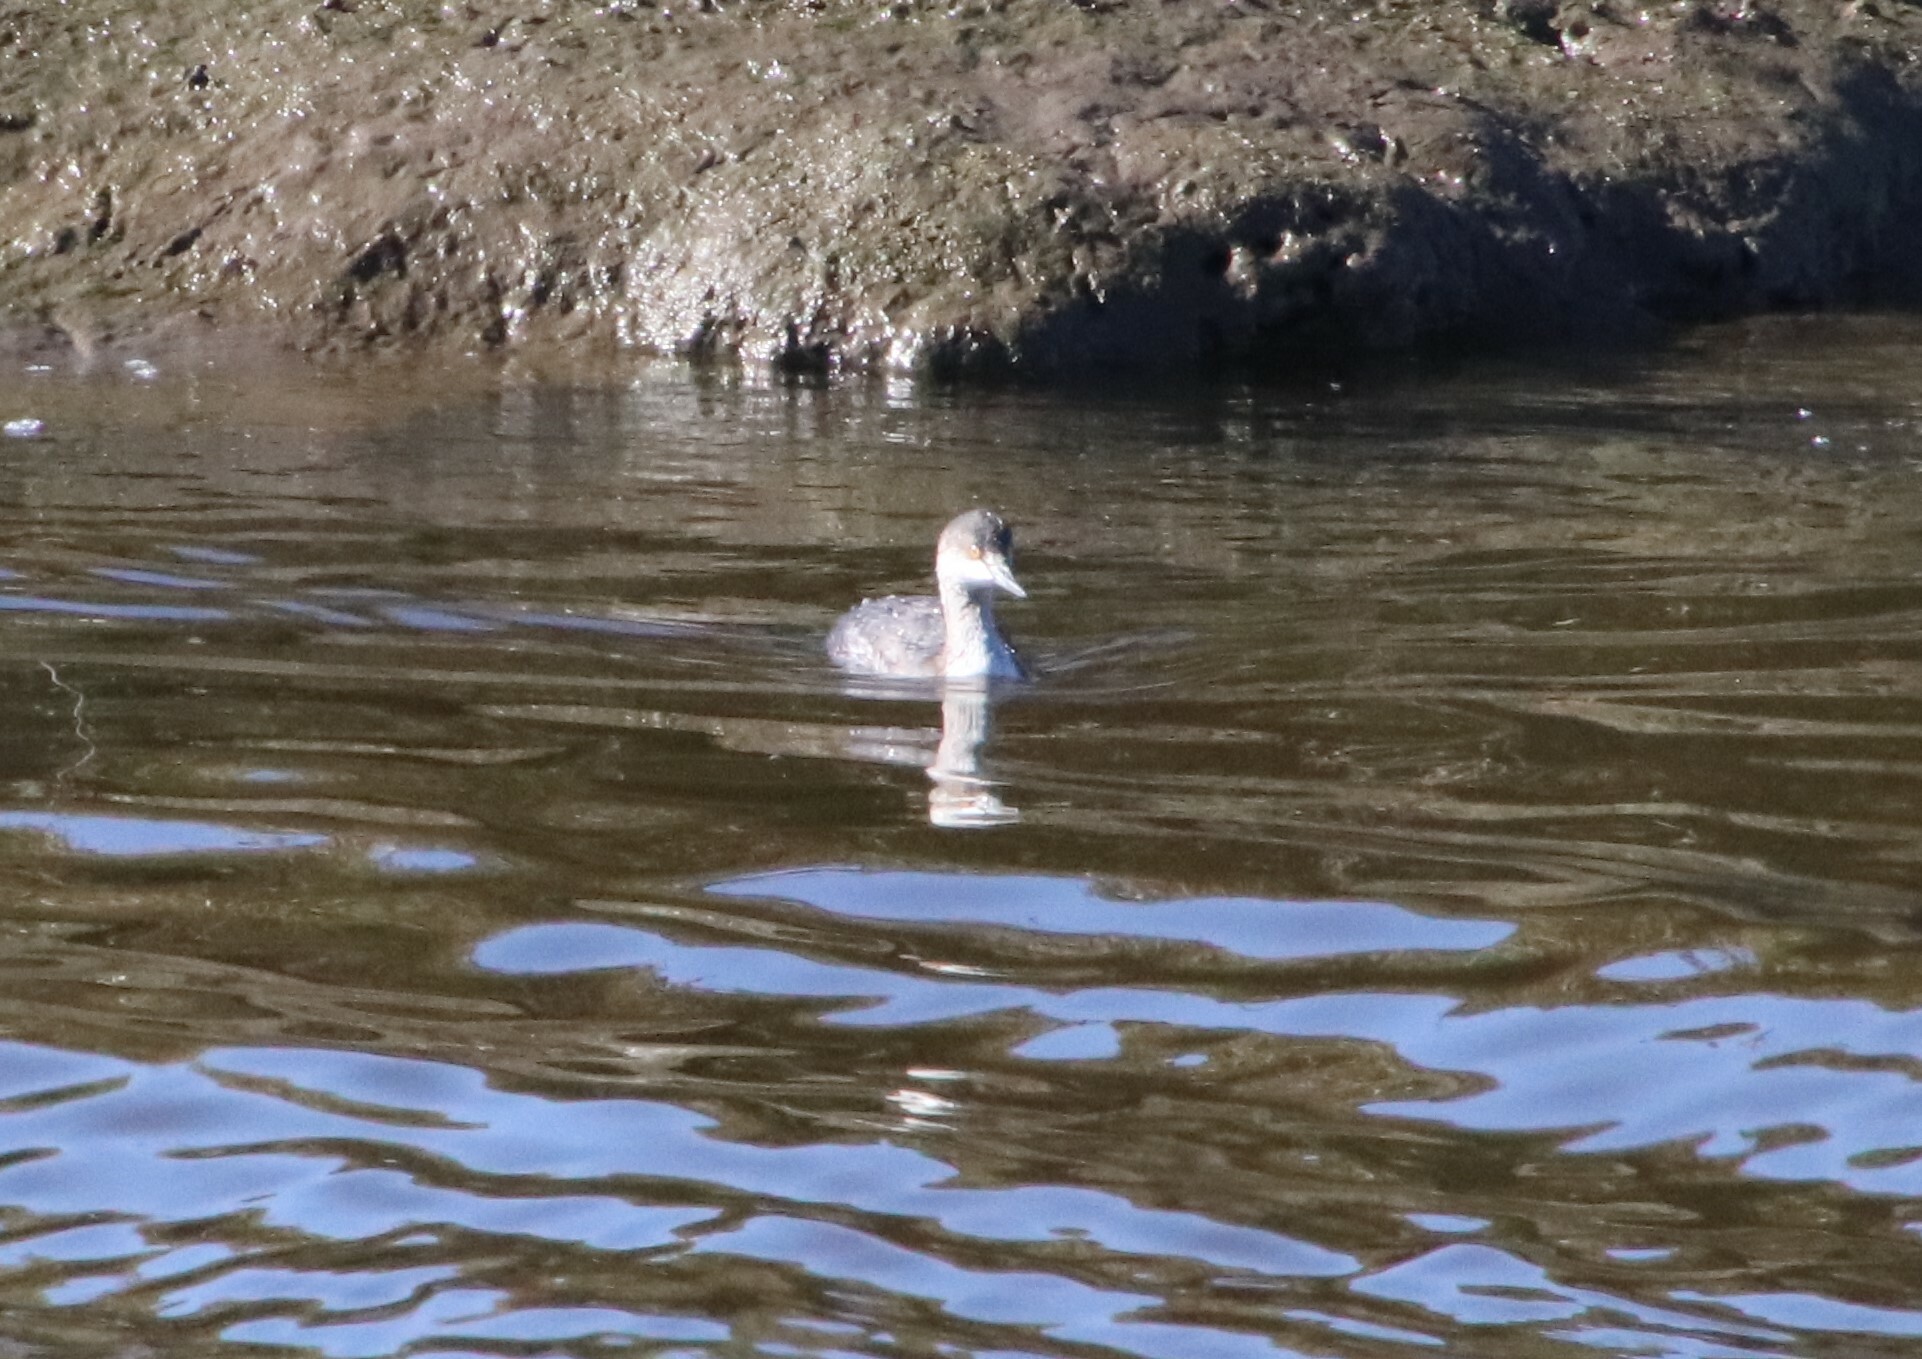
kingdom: Animalia
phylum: Chordata
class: Aves
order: Podicipediformes
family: Podicipedidae
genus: Podiceps
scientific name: Podiceps nigricollis
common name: Black-necked grebe
